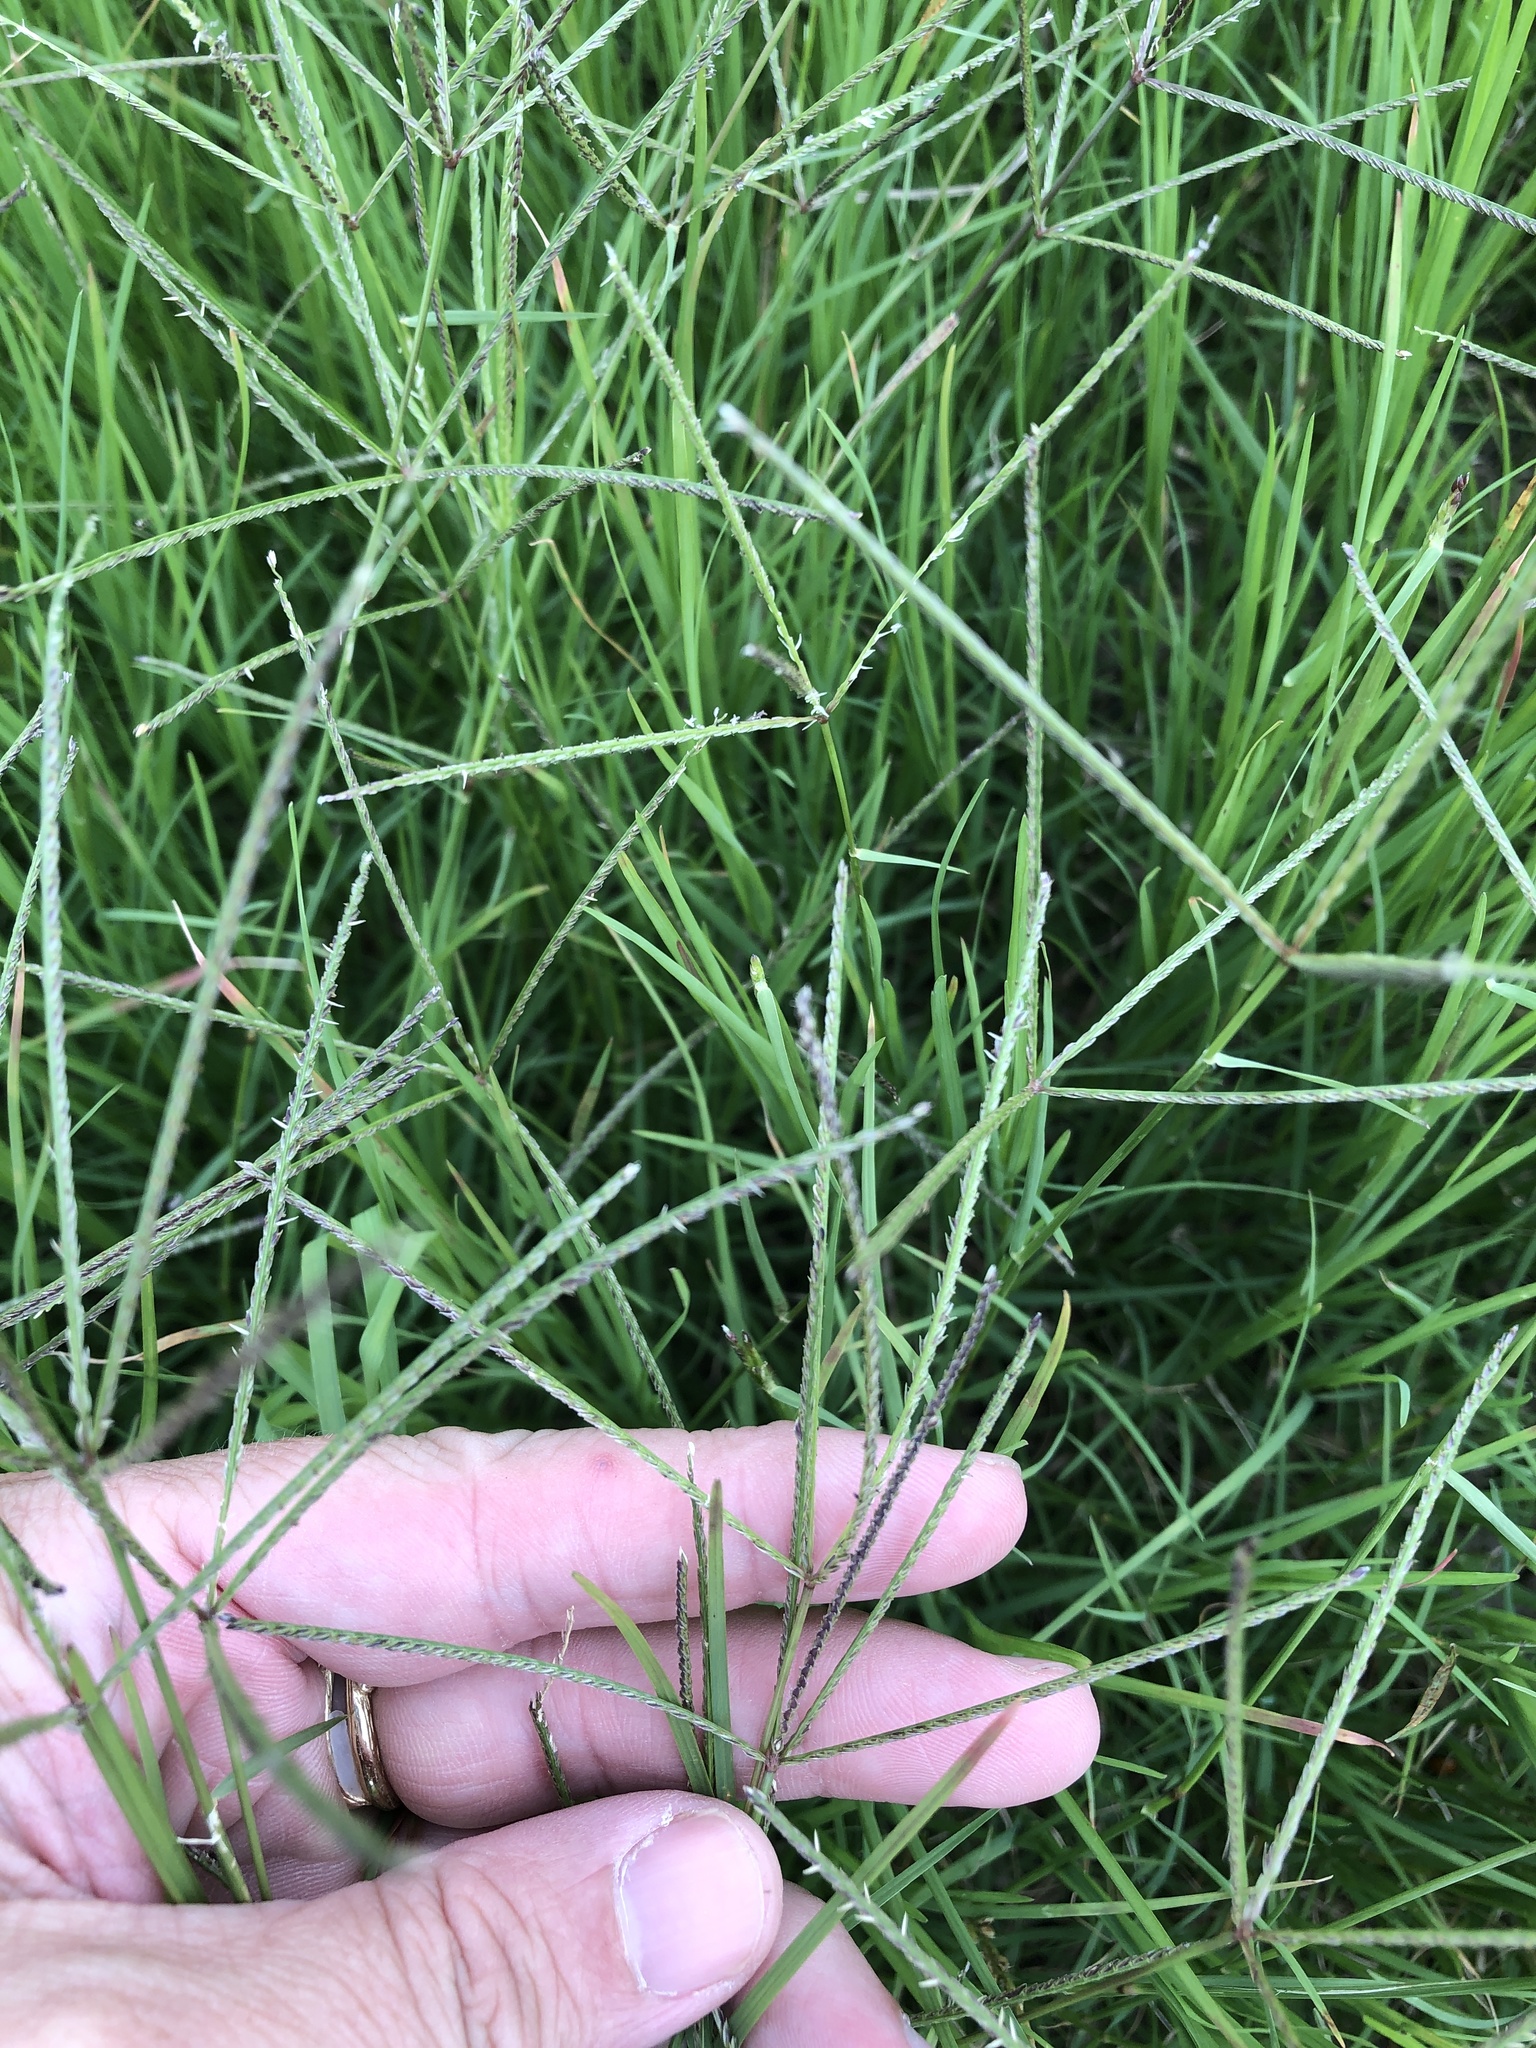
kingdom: Plantae
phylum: Tracheophyta
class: Liliopsida
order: Poales
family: Poaceae
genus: Cynodon
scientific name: Cynodon dactylon
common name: Bermuda grass
